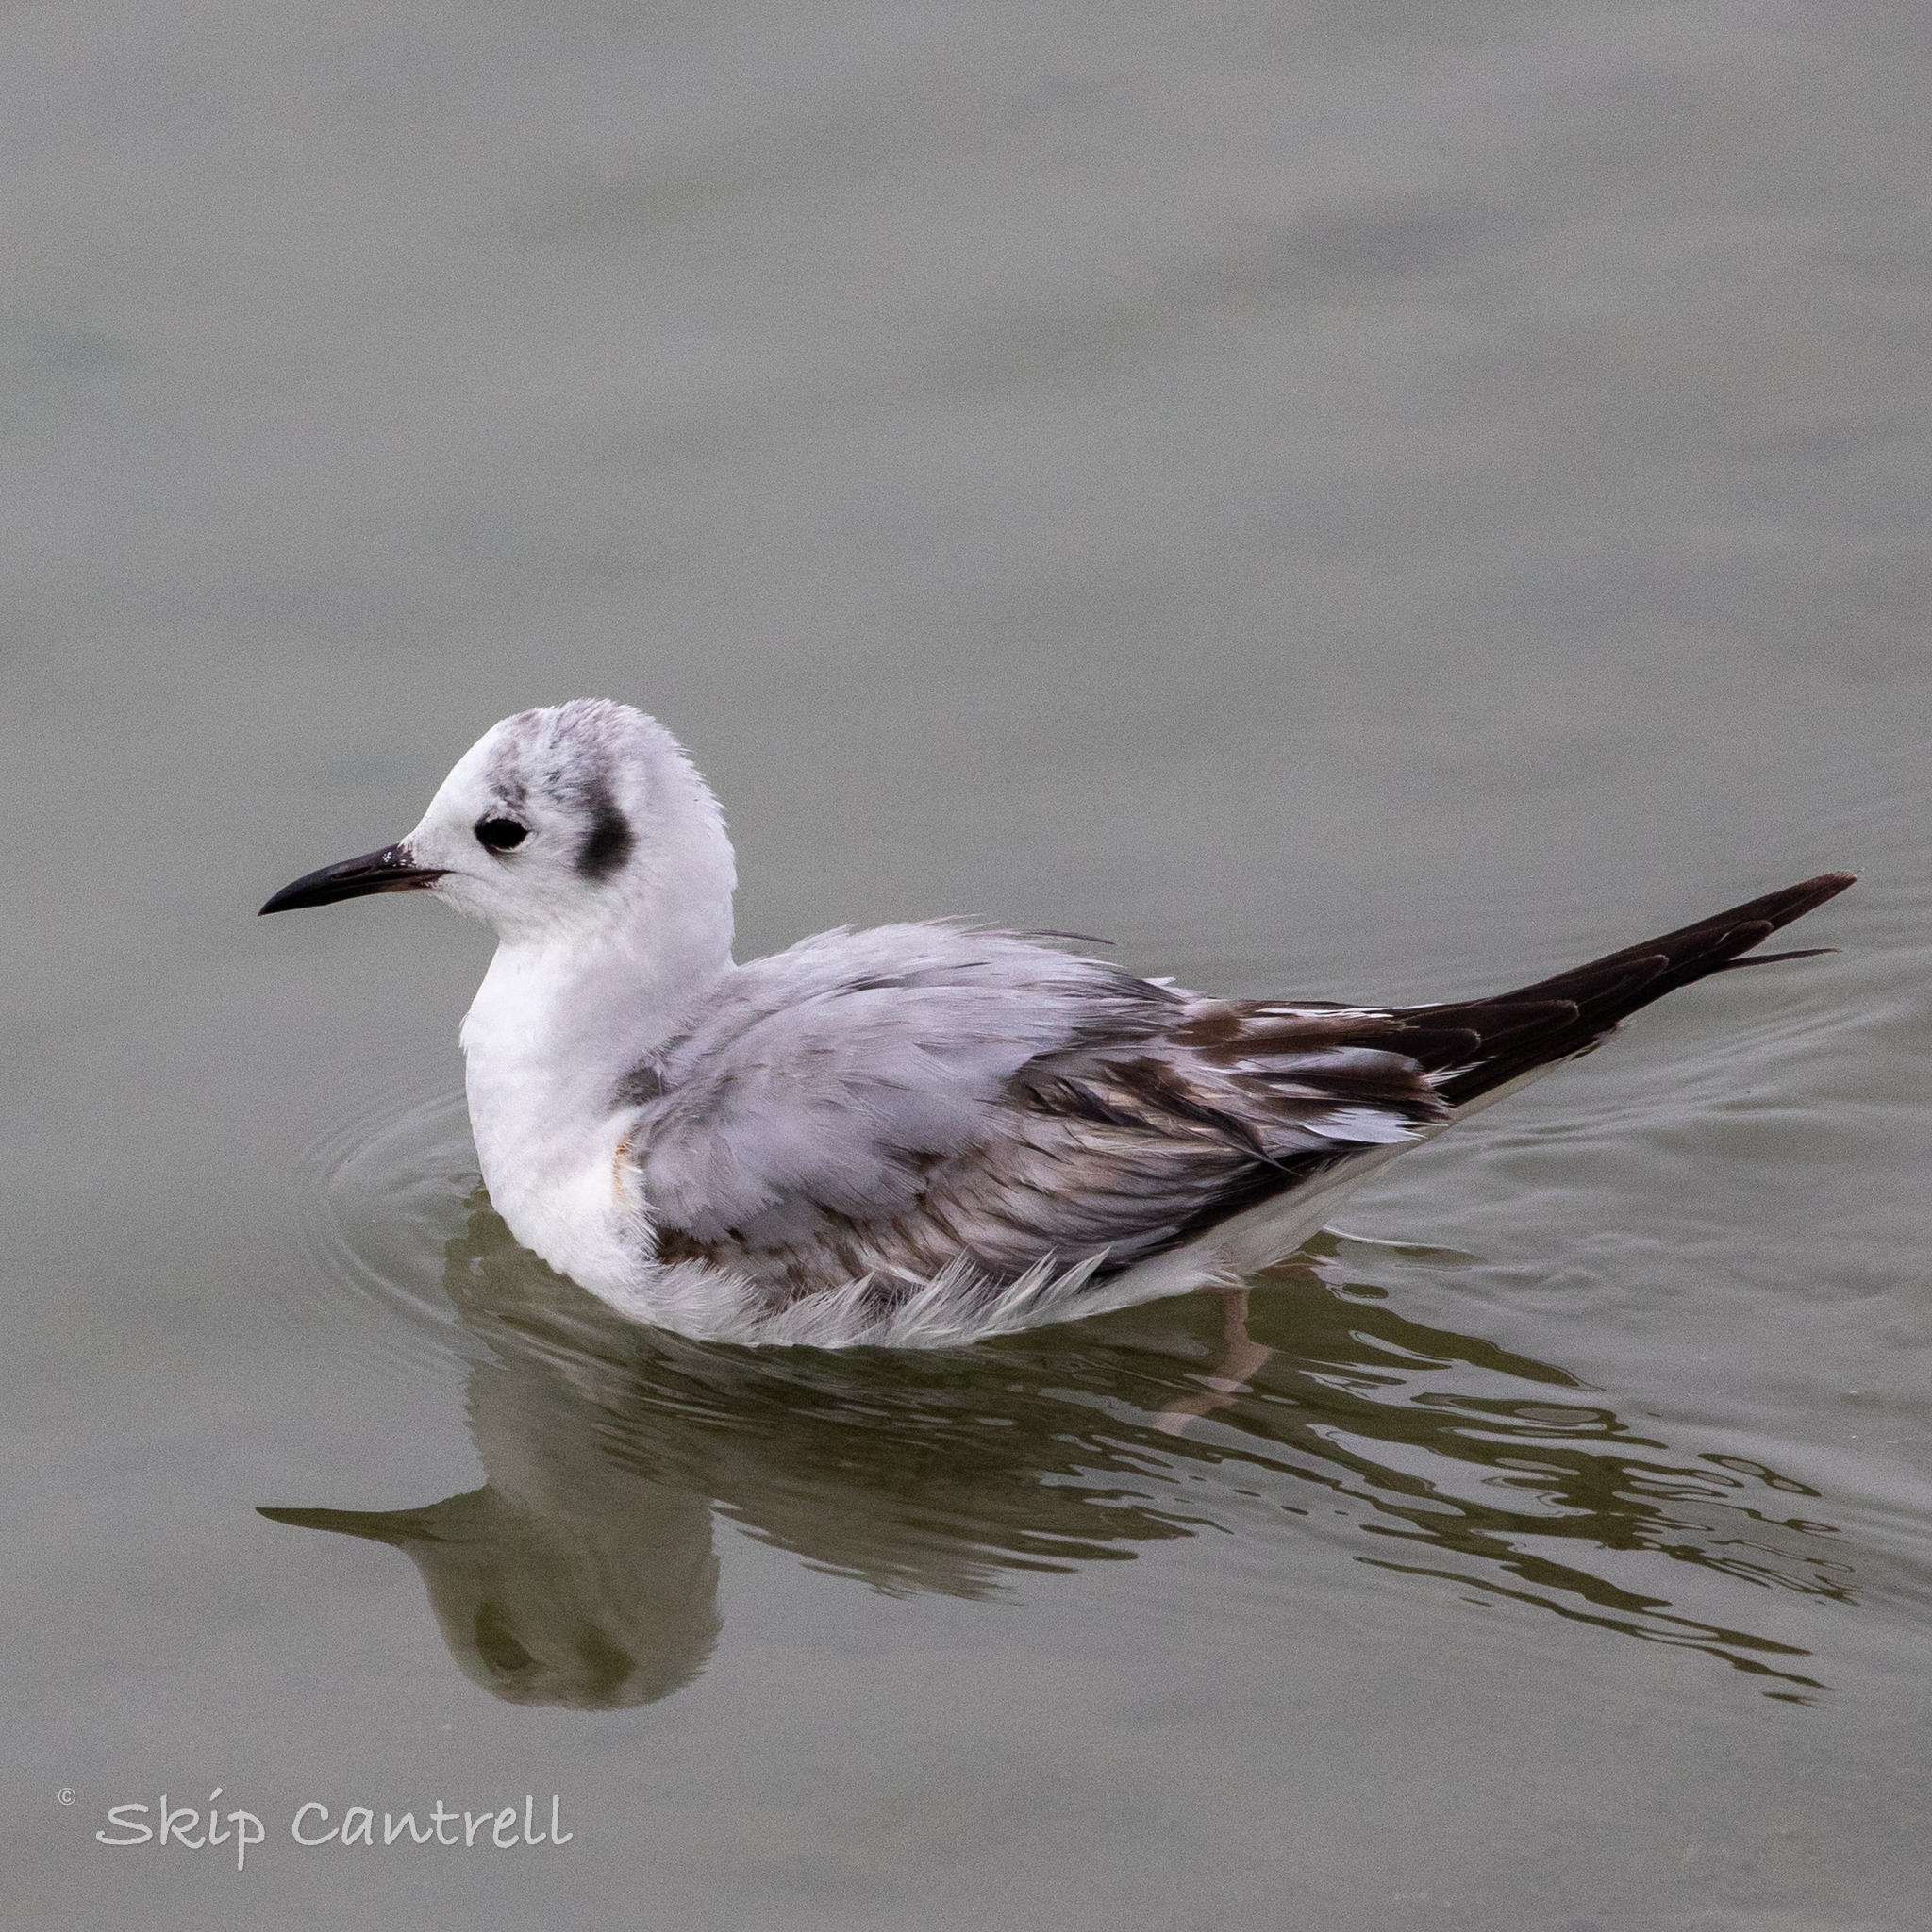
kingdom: Animalia
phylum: Chordata
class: Aves
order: Charadriiformes
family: Laridae
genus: Chroicocephalus
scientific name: Chroicocephalus philadelphia
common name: Bonaparte's gull
